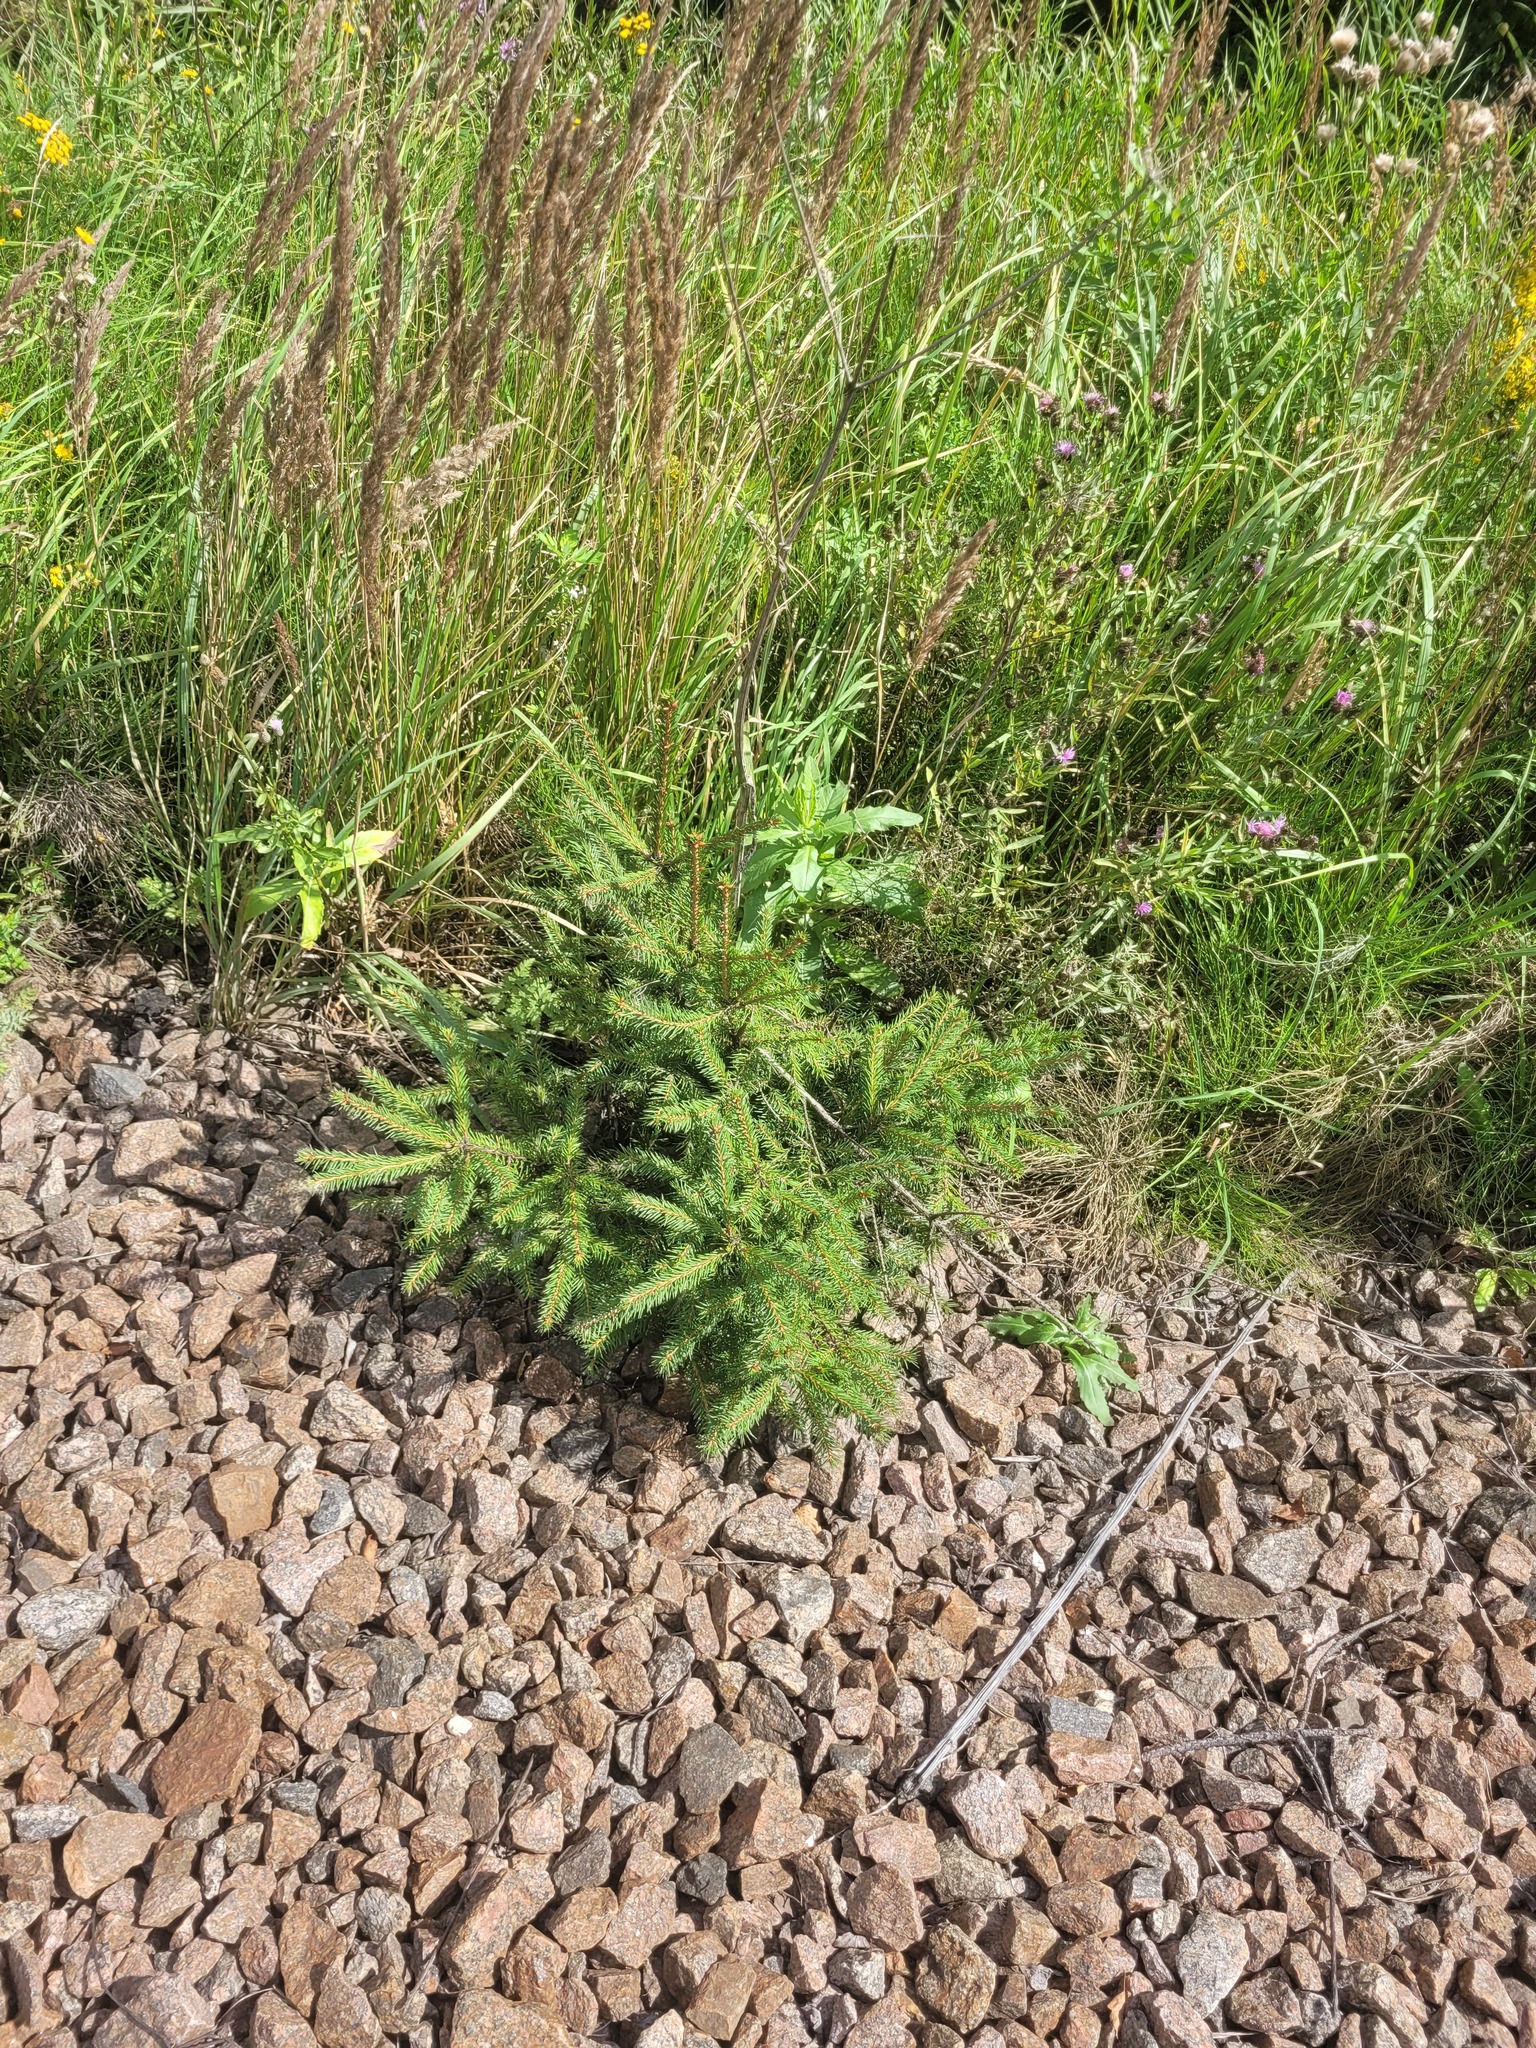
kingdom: Plantae
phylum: Tracheophyta
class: Pinopsida
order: Pinales
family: Pinaceae
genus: Picea
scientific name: Picea abies
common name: Norway spruce
